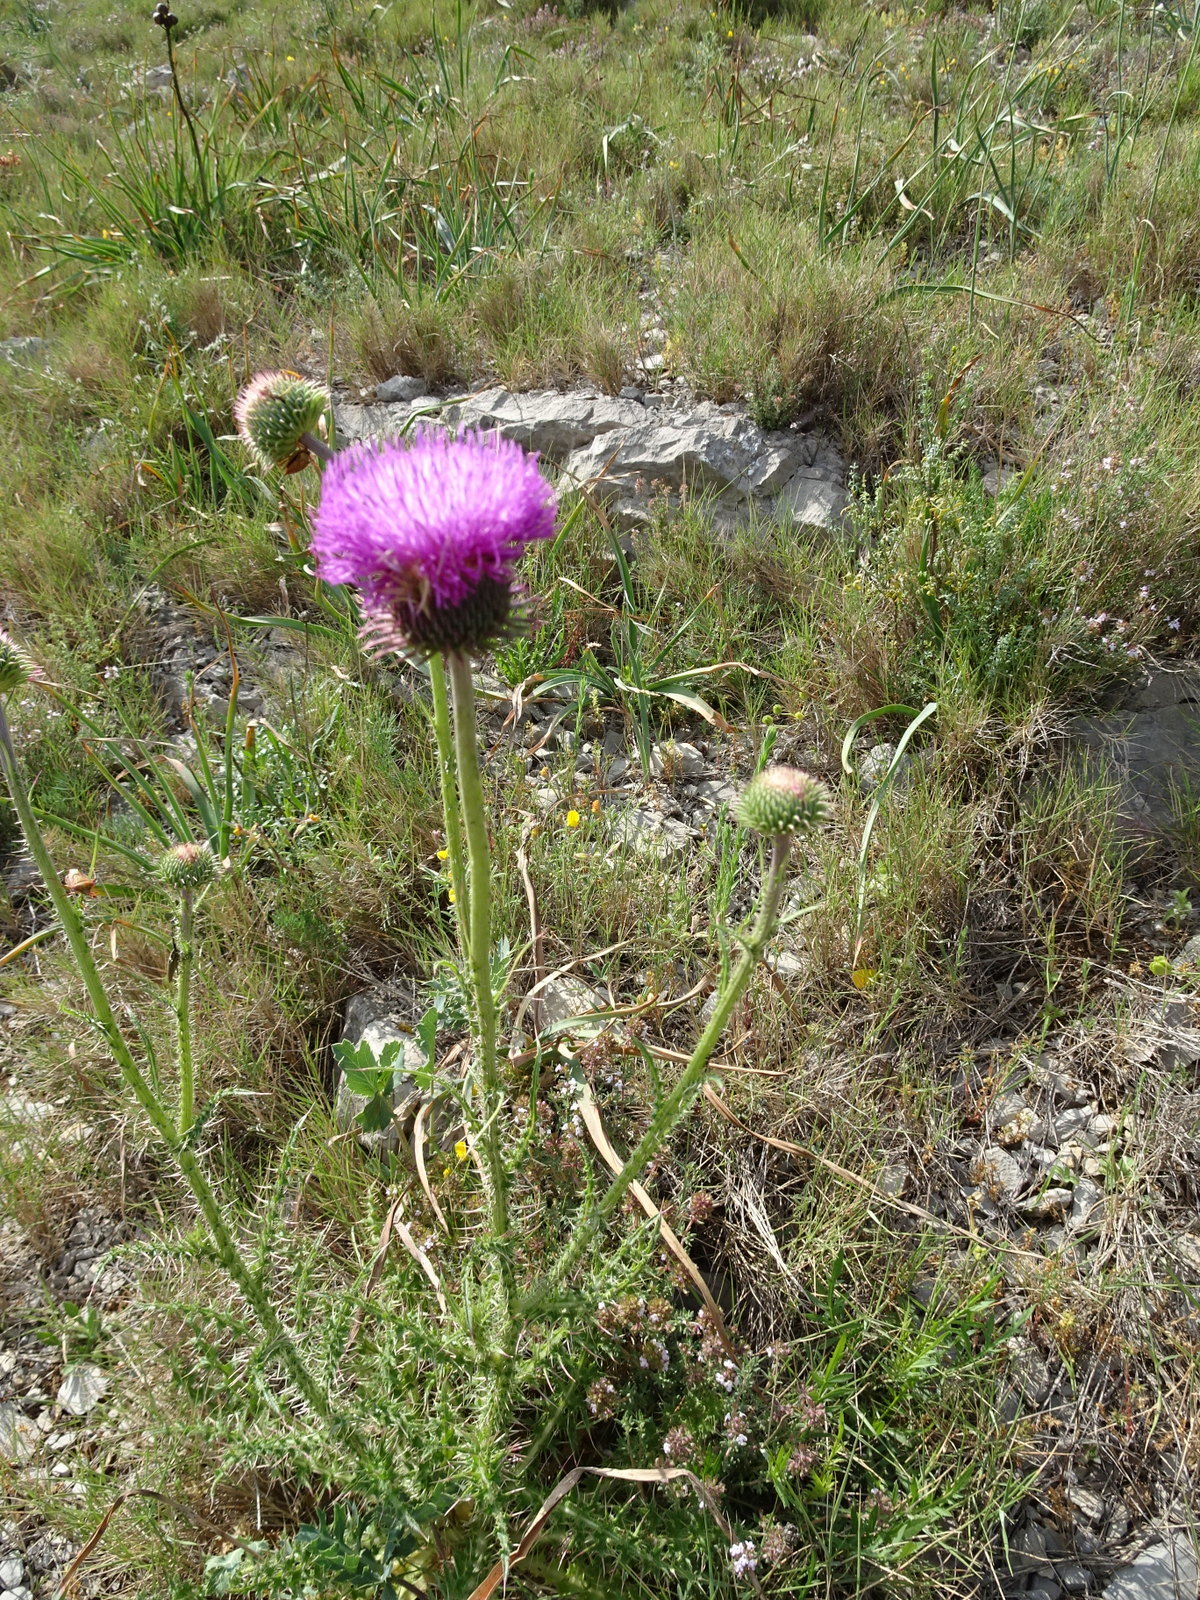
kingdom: Plantae
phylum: Tracheophyta
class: Magnoliopsida
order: Asterales
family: Asteraceae
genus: Carduus
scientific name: Carduus nigrescens
